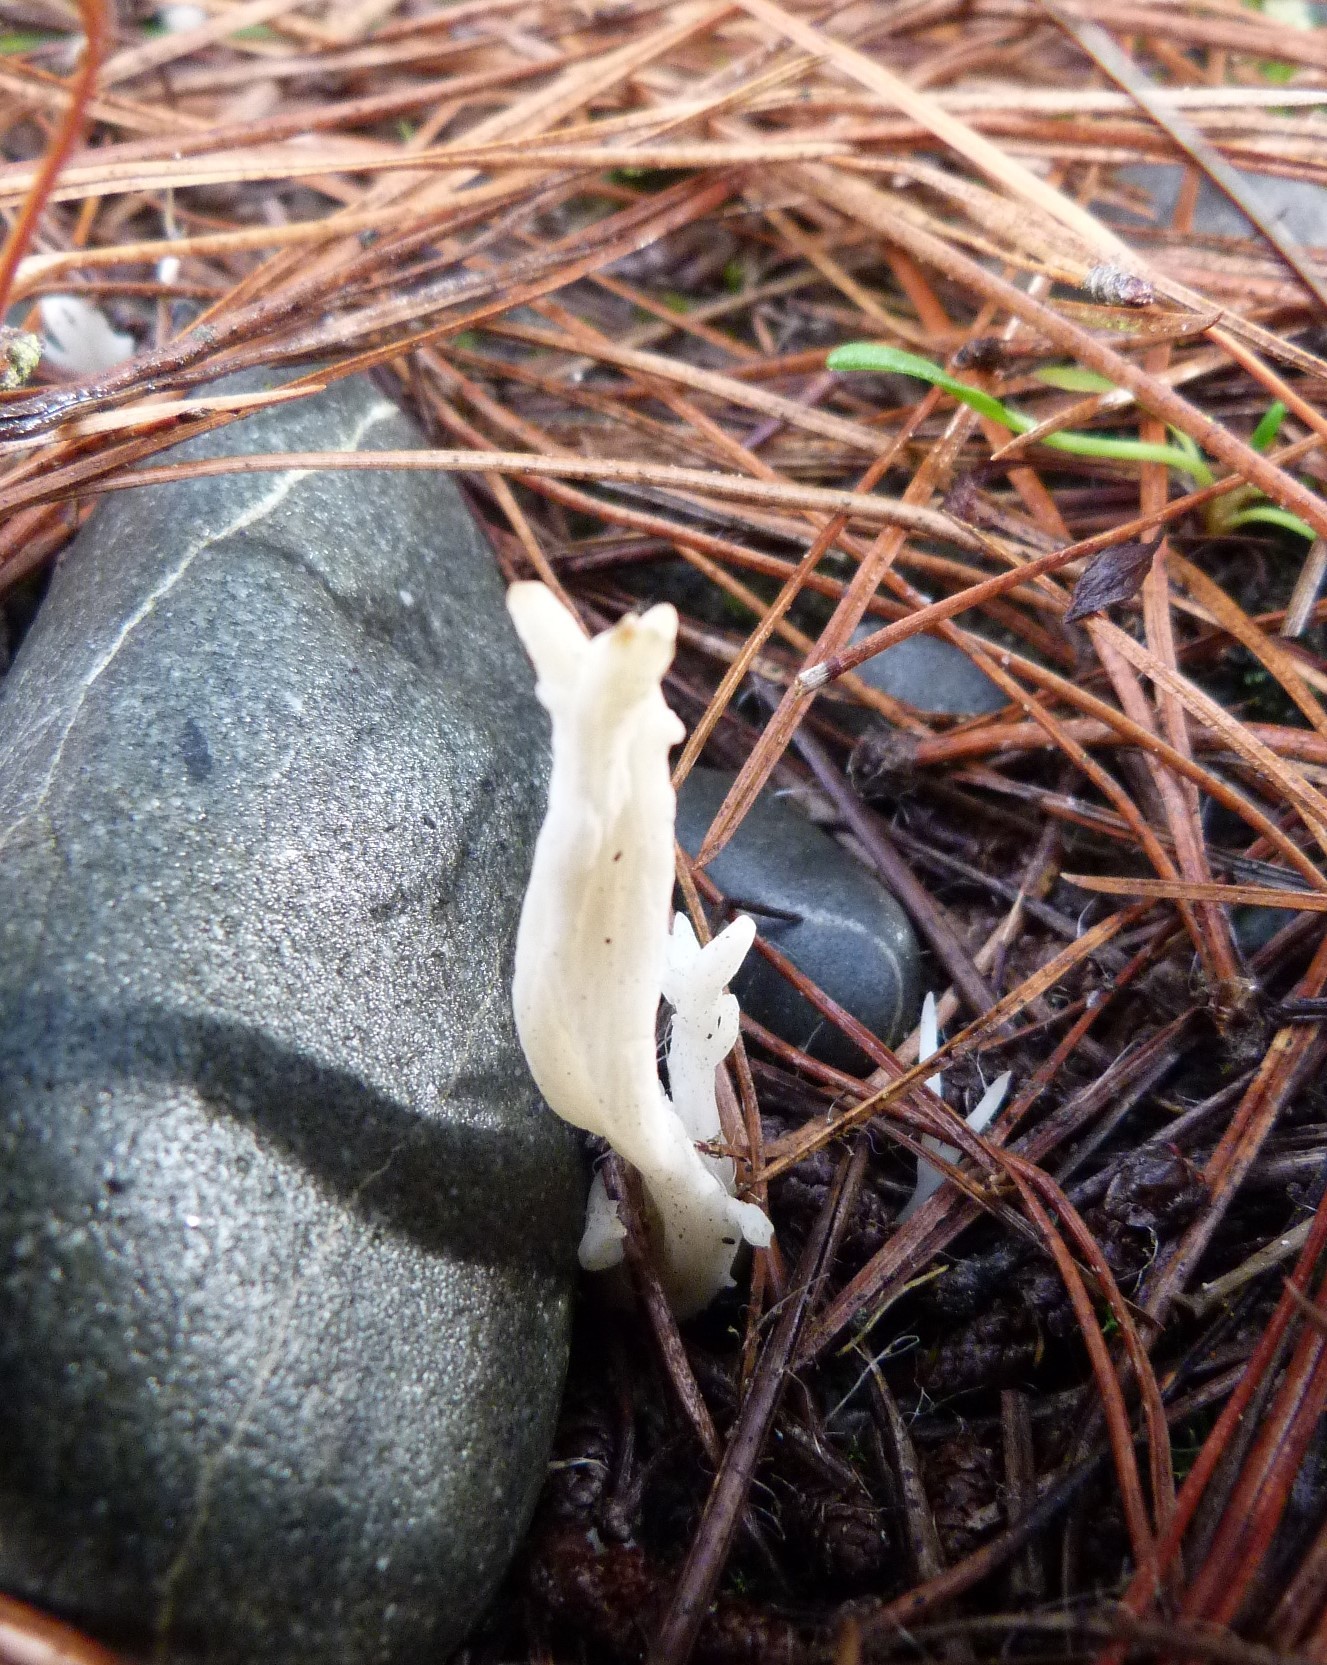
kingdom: Fungi
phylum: Basidiomycota
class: Agaricomycetes
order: Cantharellales
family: Hydnaceae
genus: Clavulina
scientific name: Clavulina rugosa
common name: Wrinkled club
